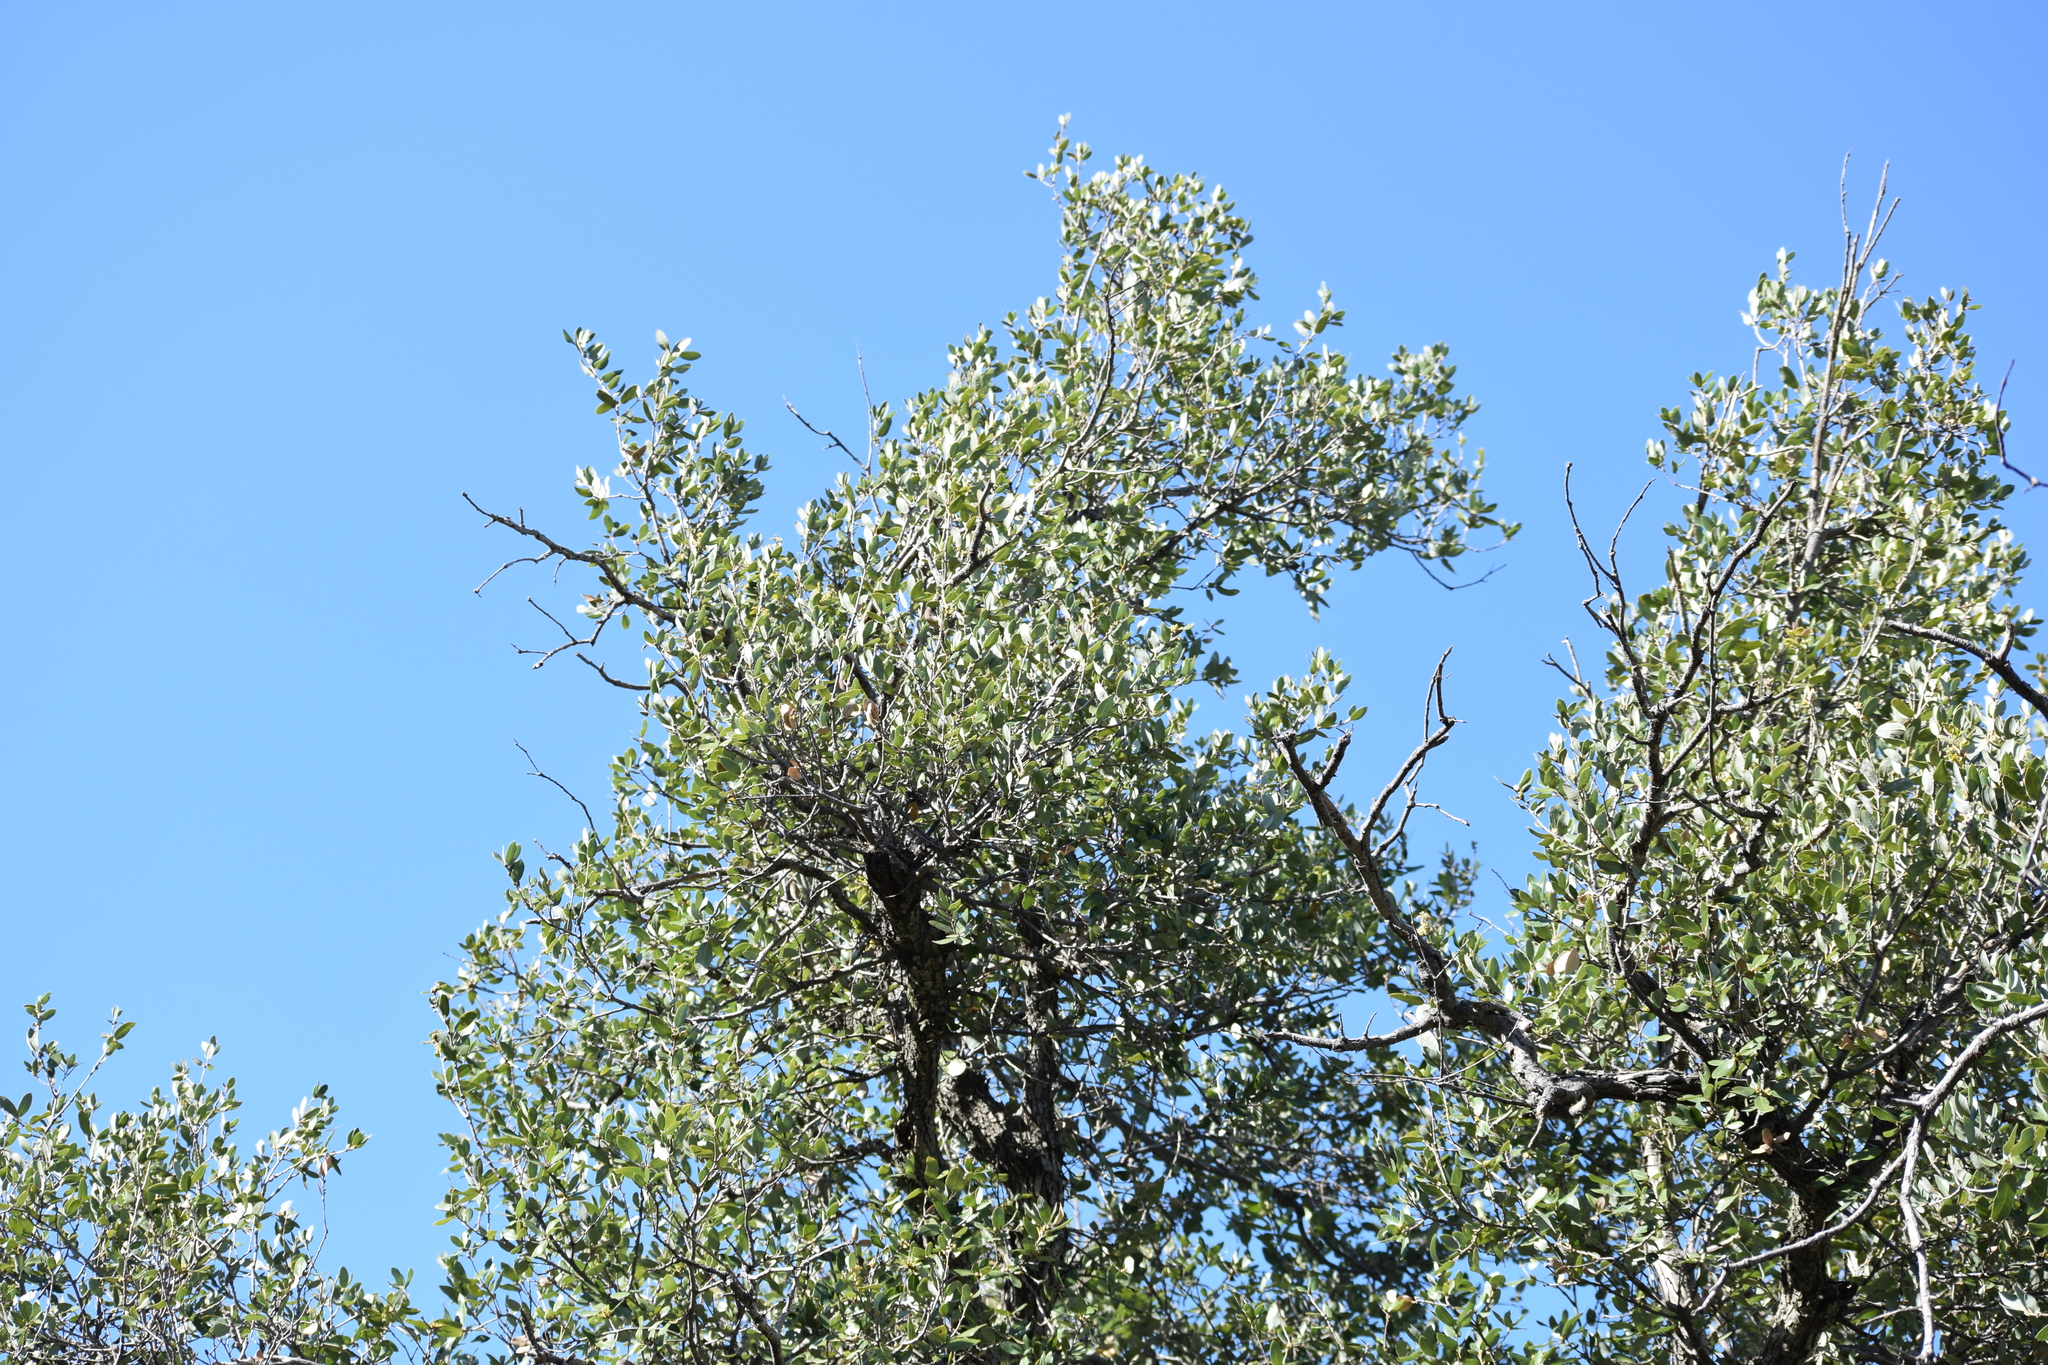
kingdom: Plantae
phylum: Tracheophyta
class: Magnoliopsida
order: Fagales
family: Fagaceae
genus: Quercus
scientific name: Quercus chrysolepis
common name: Canyon live oak
